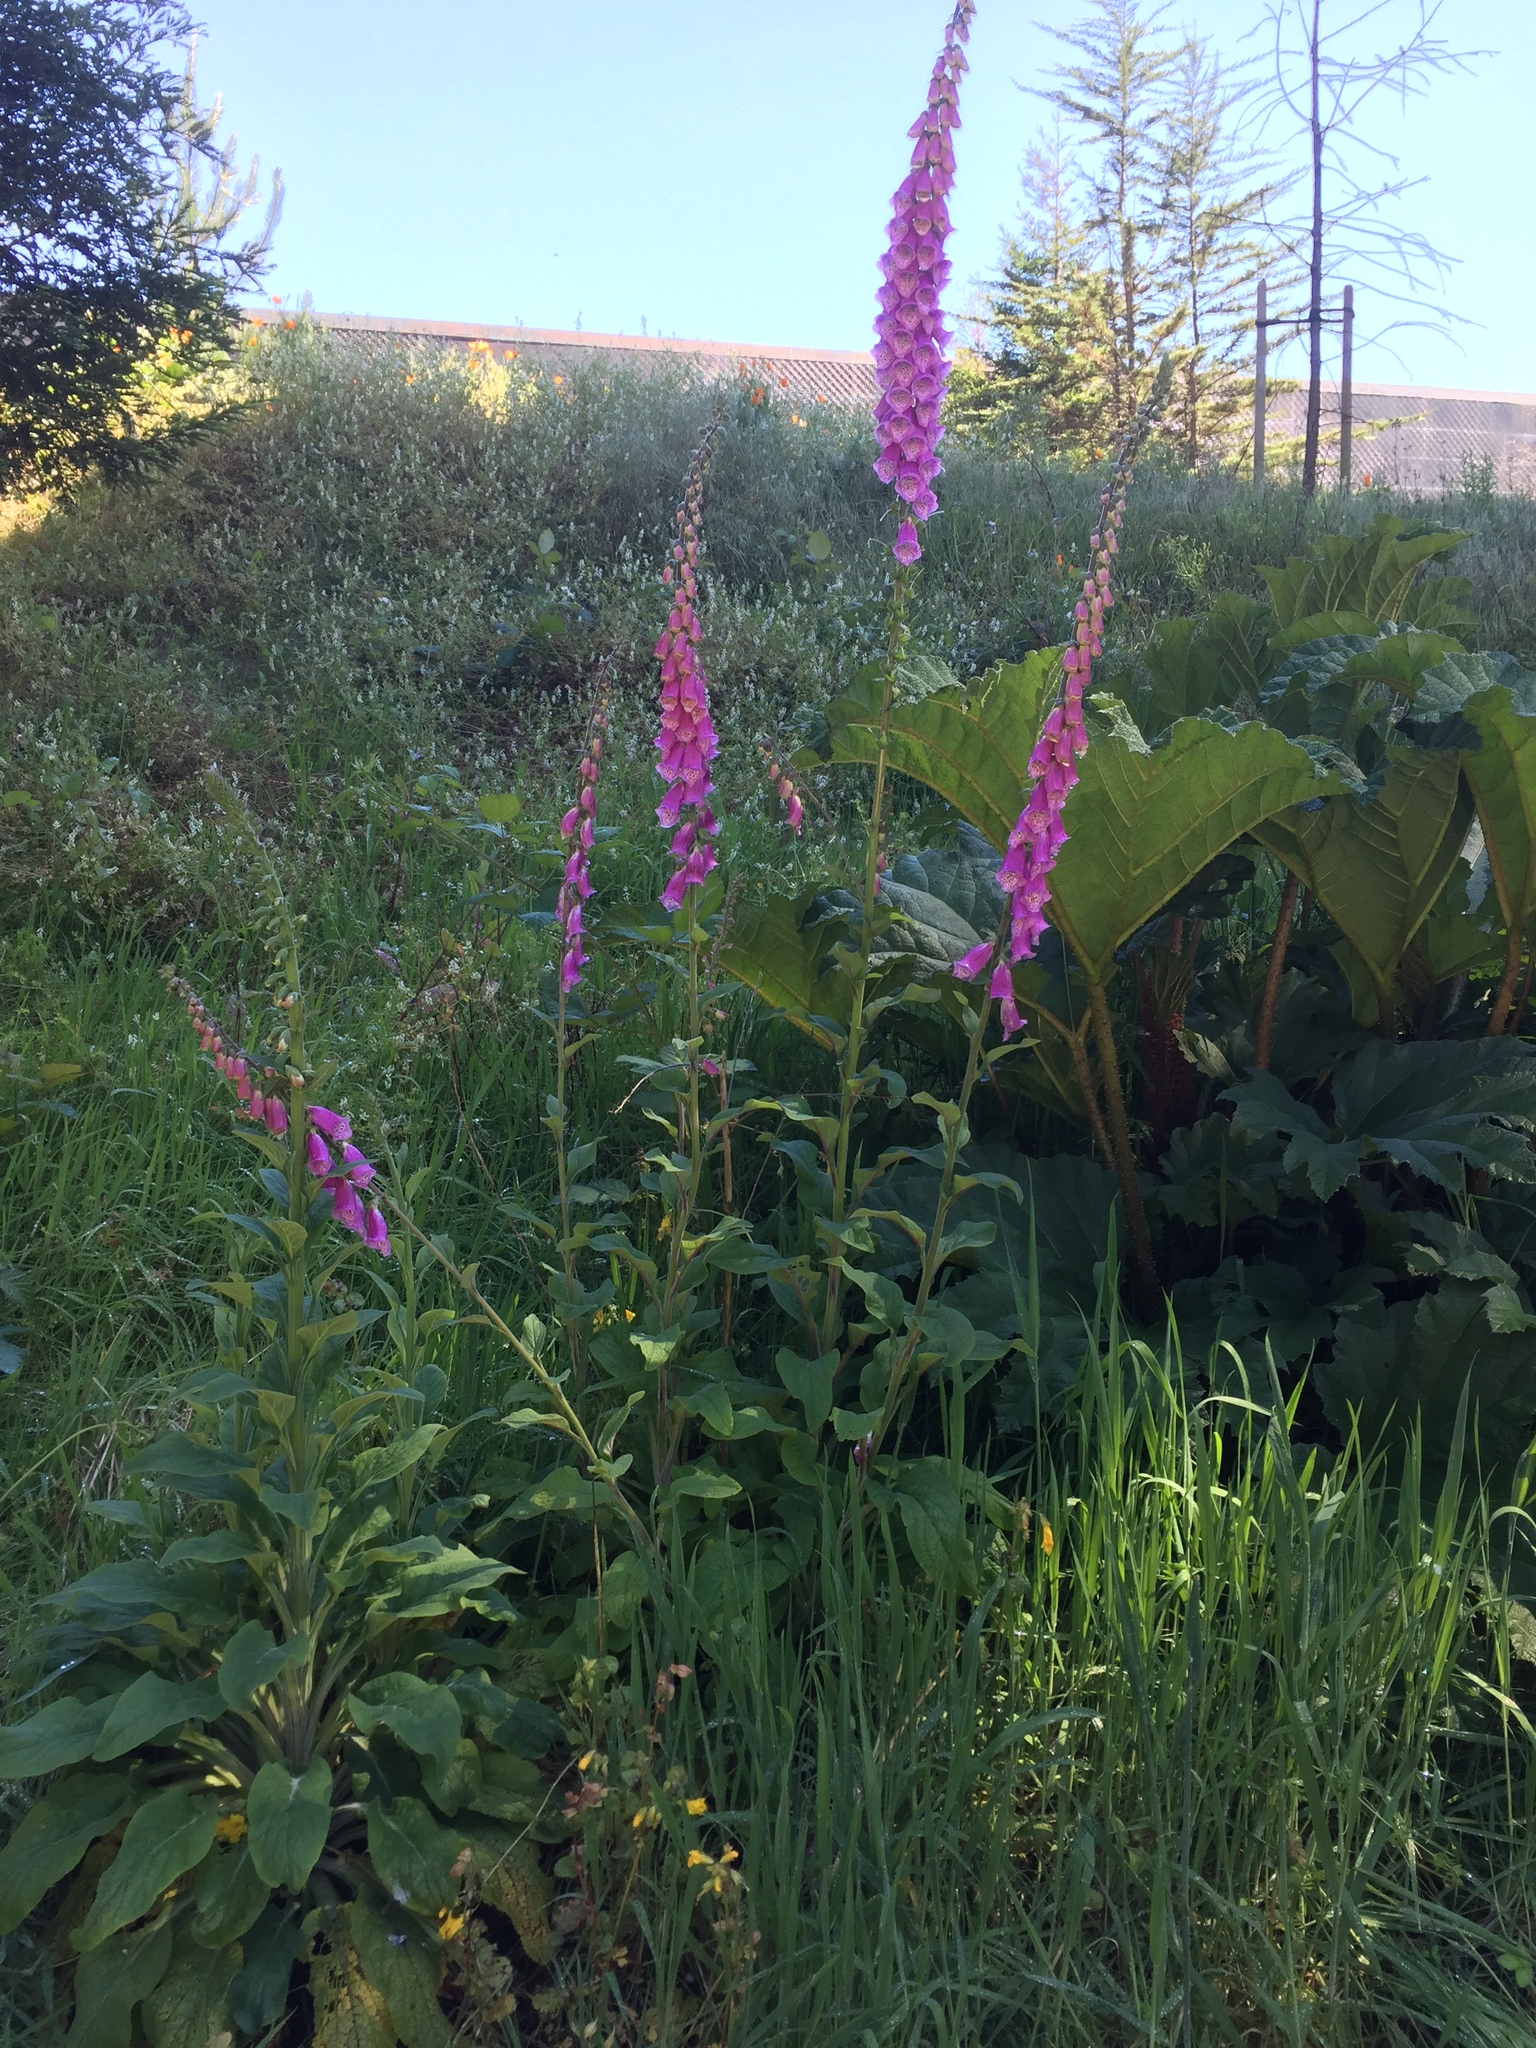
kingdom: Plantae
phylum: Tracheophyta
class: Magnoliopsida
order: Lamiales
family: Plantaginaceae
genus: Digitalis
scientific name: Digitalis purpurea
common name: Foxglove
